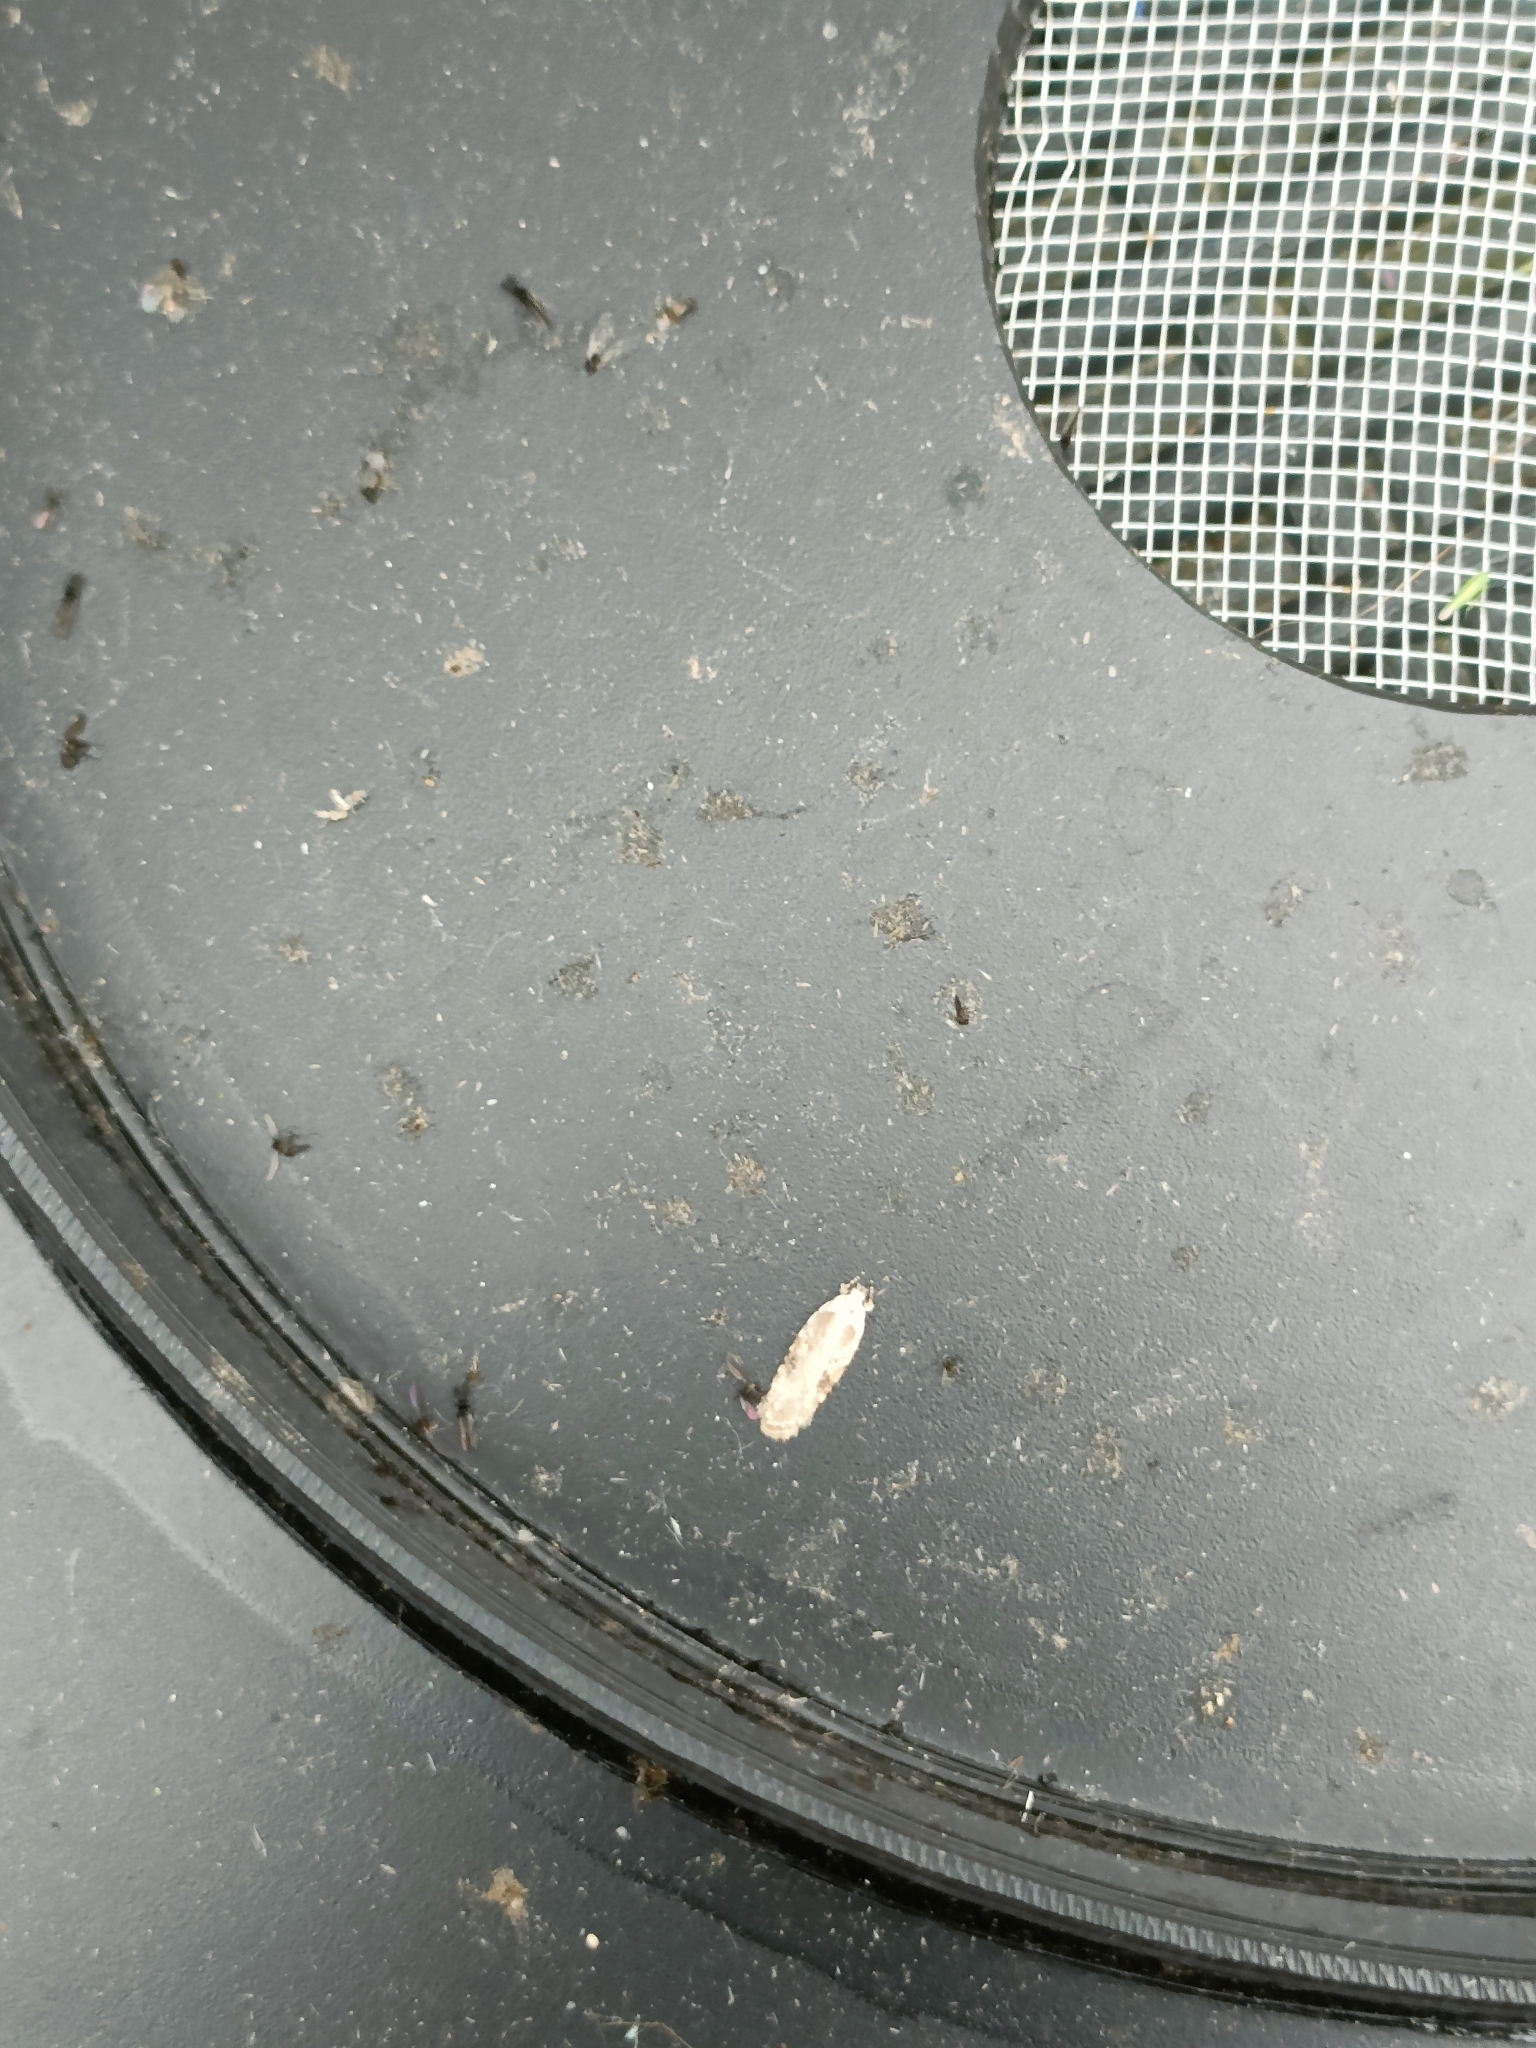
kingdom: Animalia
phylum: Arthropoda
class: Insecta
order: Lepidoptera
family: Depressariidae
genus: Agonopterix
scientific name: Agonopterix alstroemeriana
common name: Moth
